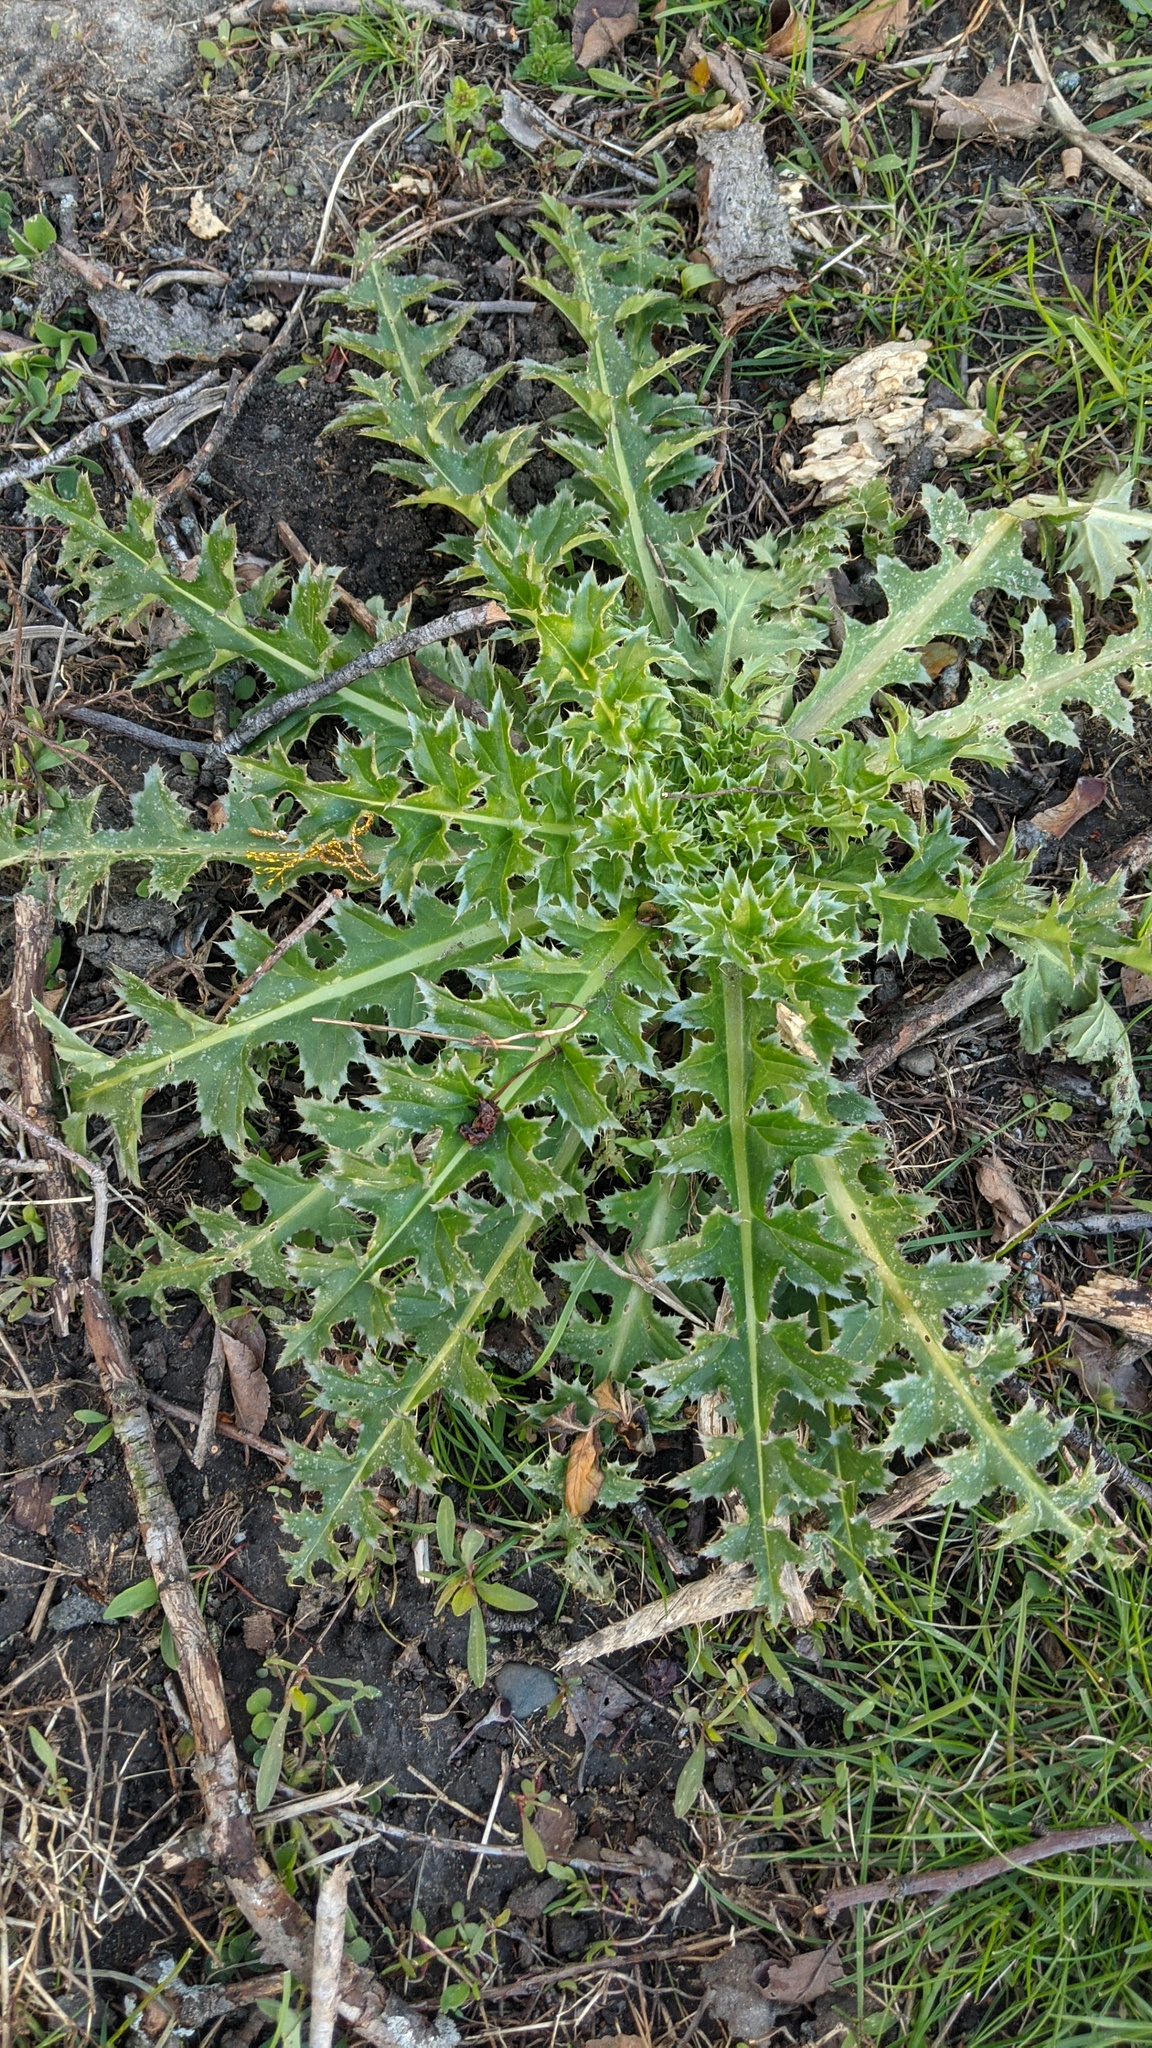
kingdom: Plantae
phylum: Tracheophyta
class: Magnoliopsida
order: Asterales
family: Asteraceae
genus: Carduus
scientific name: Carduus nutans
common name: Musk thistle
